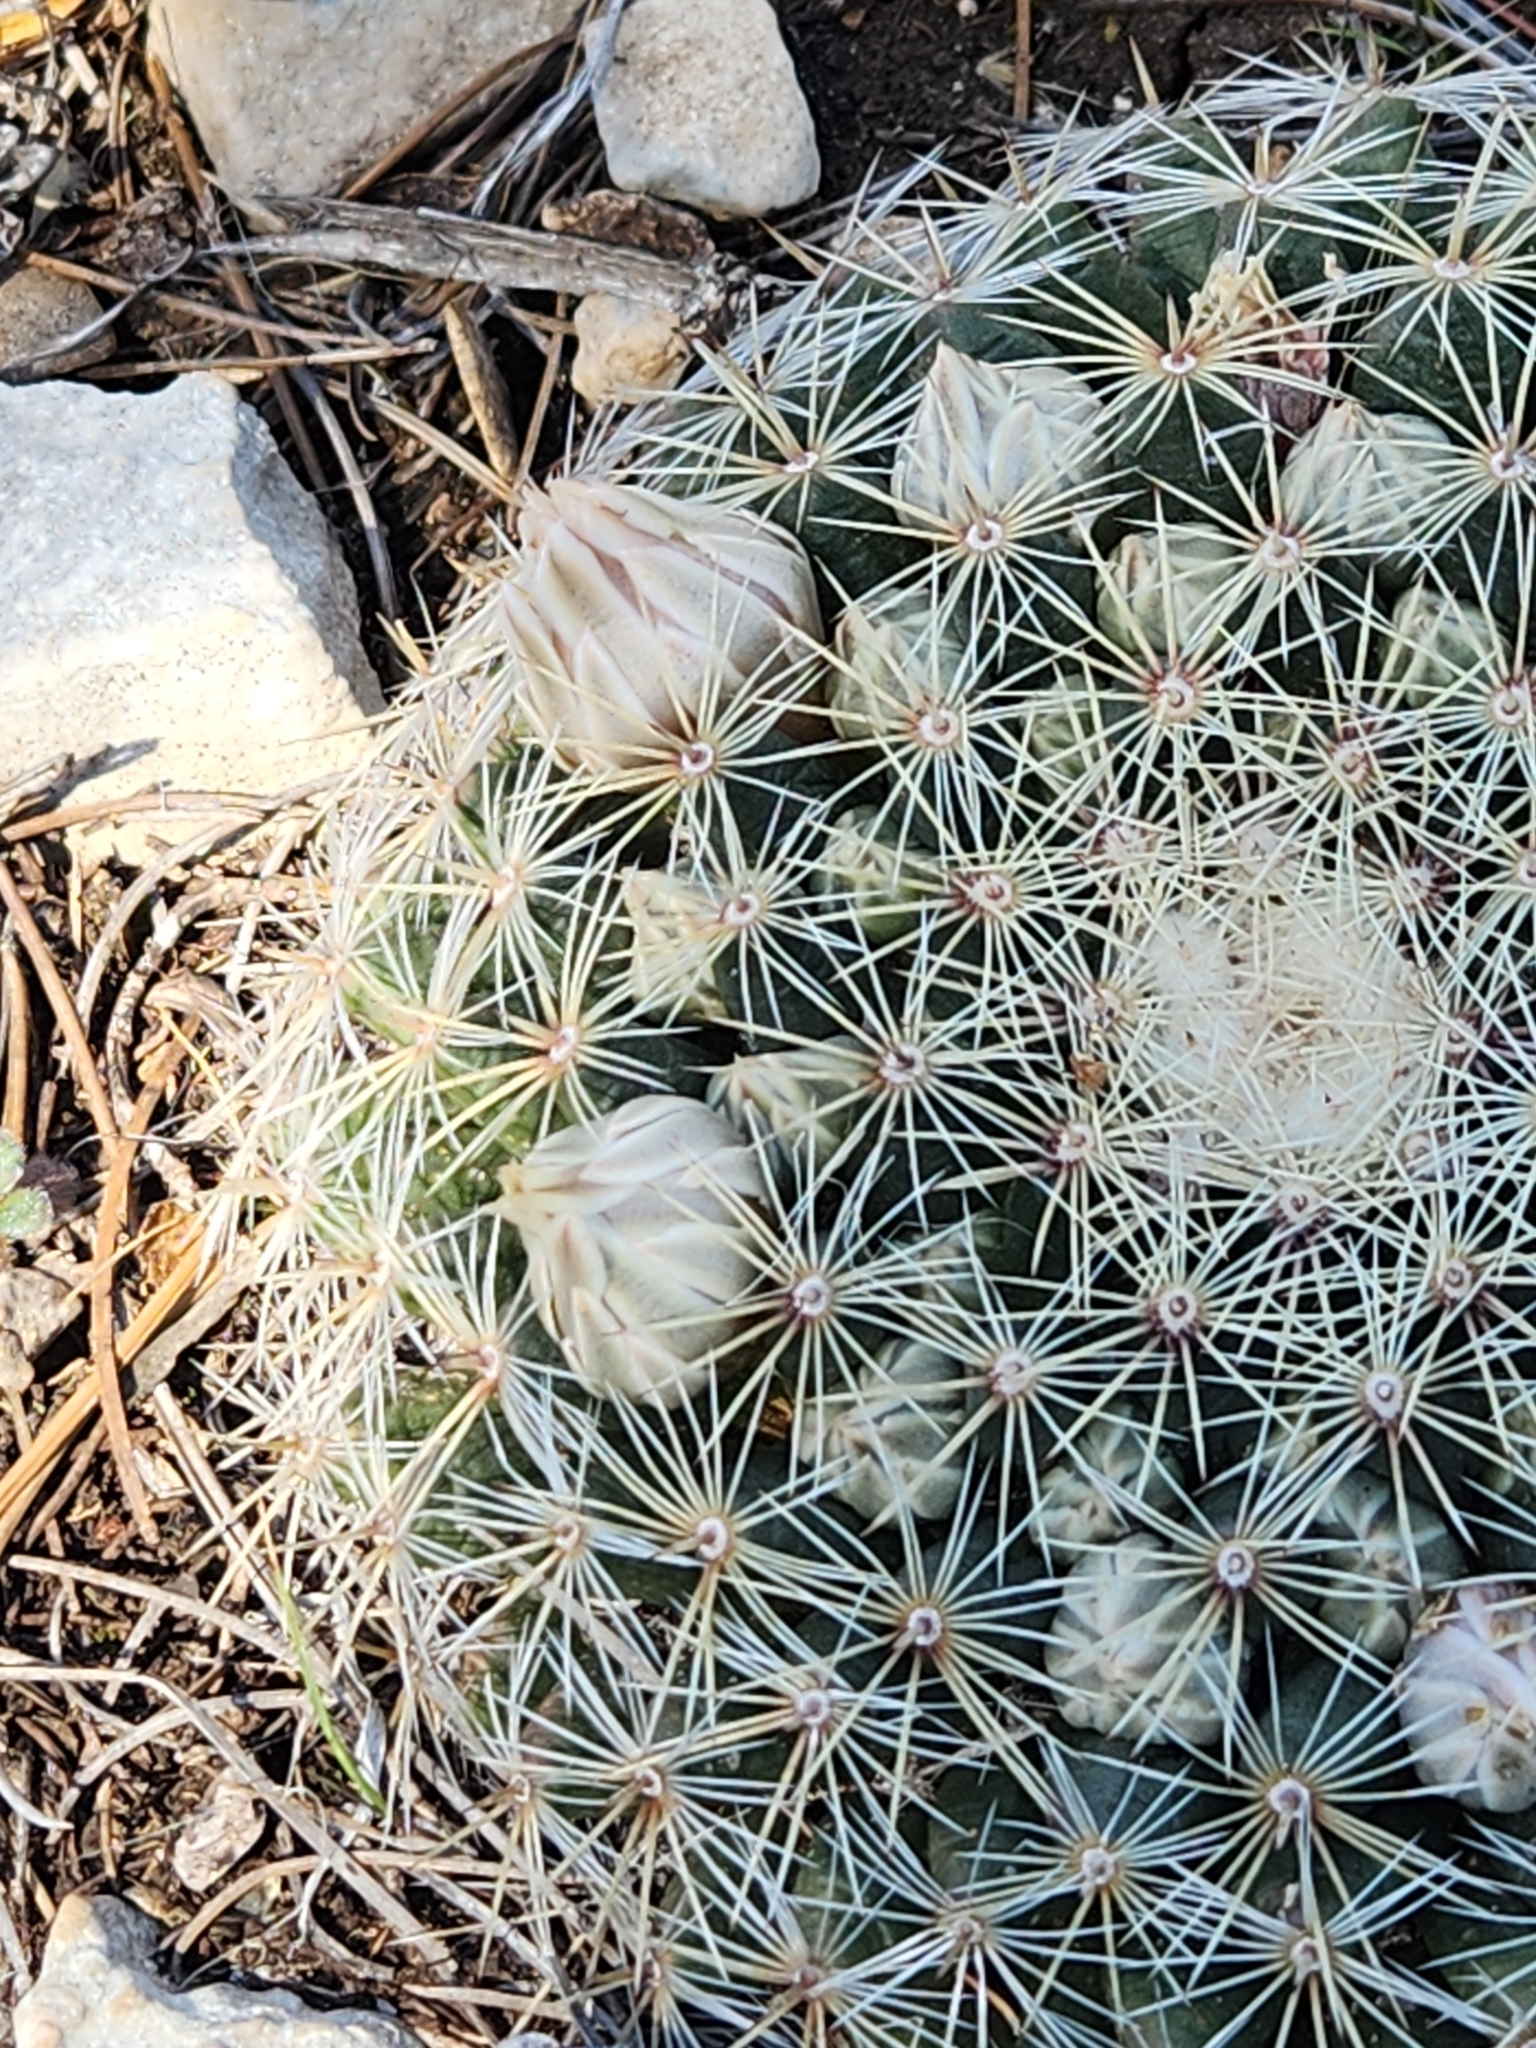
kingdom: Plantae
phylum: Tracheophyta
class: Magnoliopsida
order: Caryophyllales
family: Cactaceae
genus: Mammillaria
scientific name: Mammillaria heyderi
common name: Little nipple cactus
